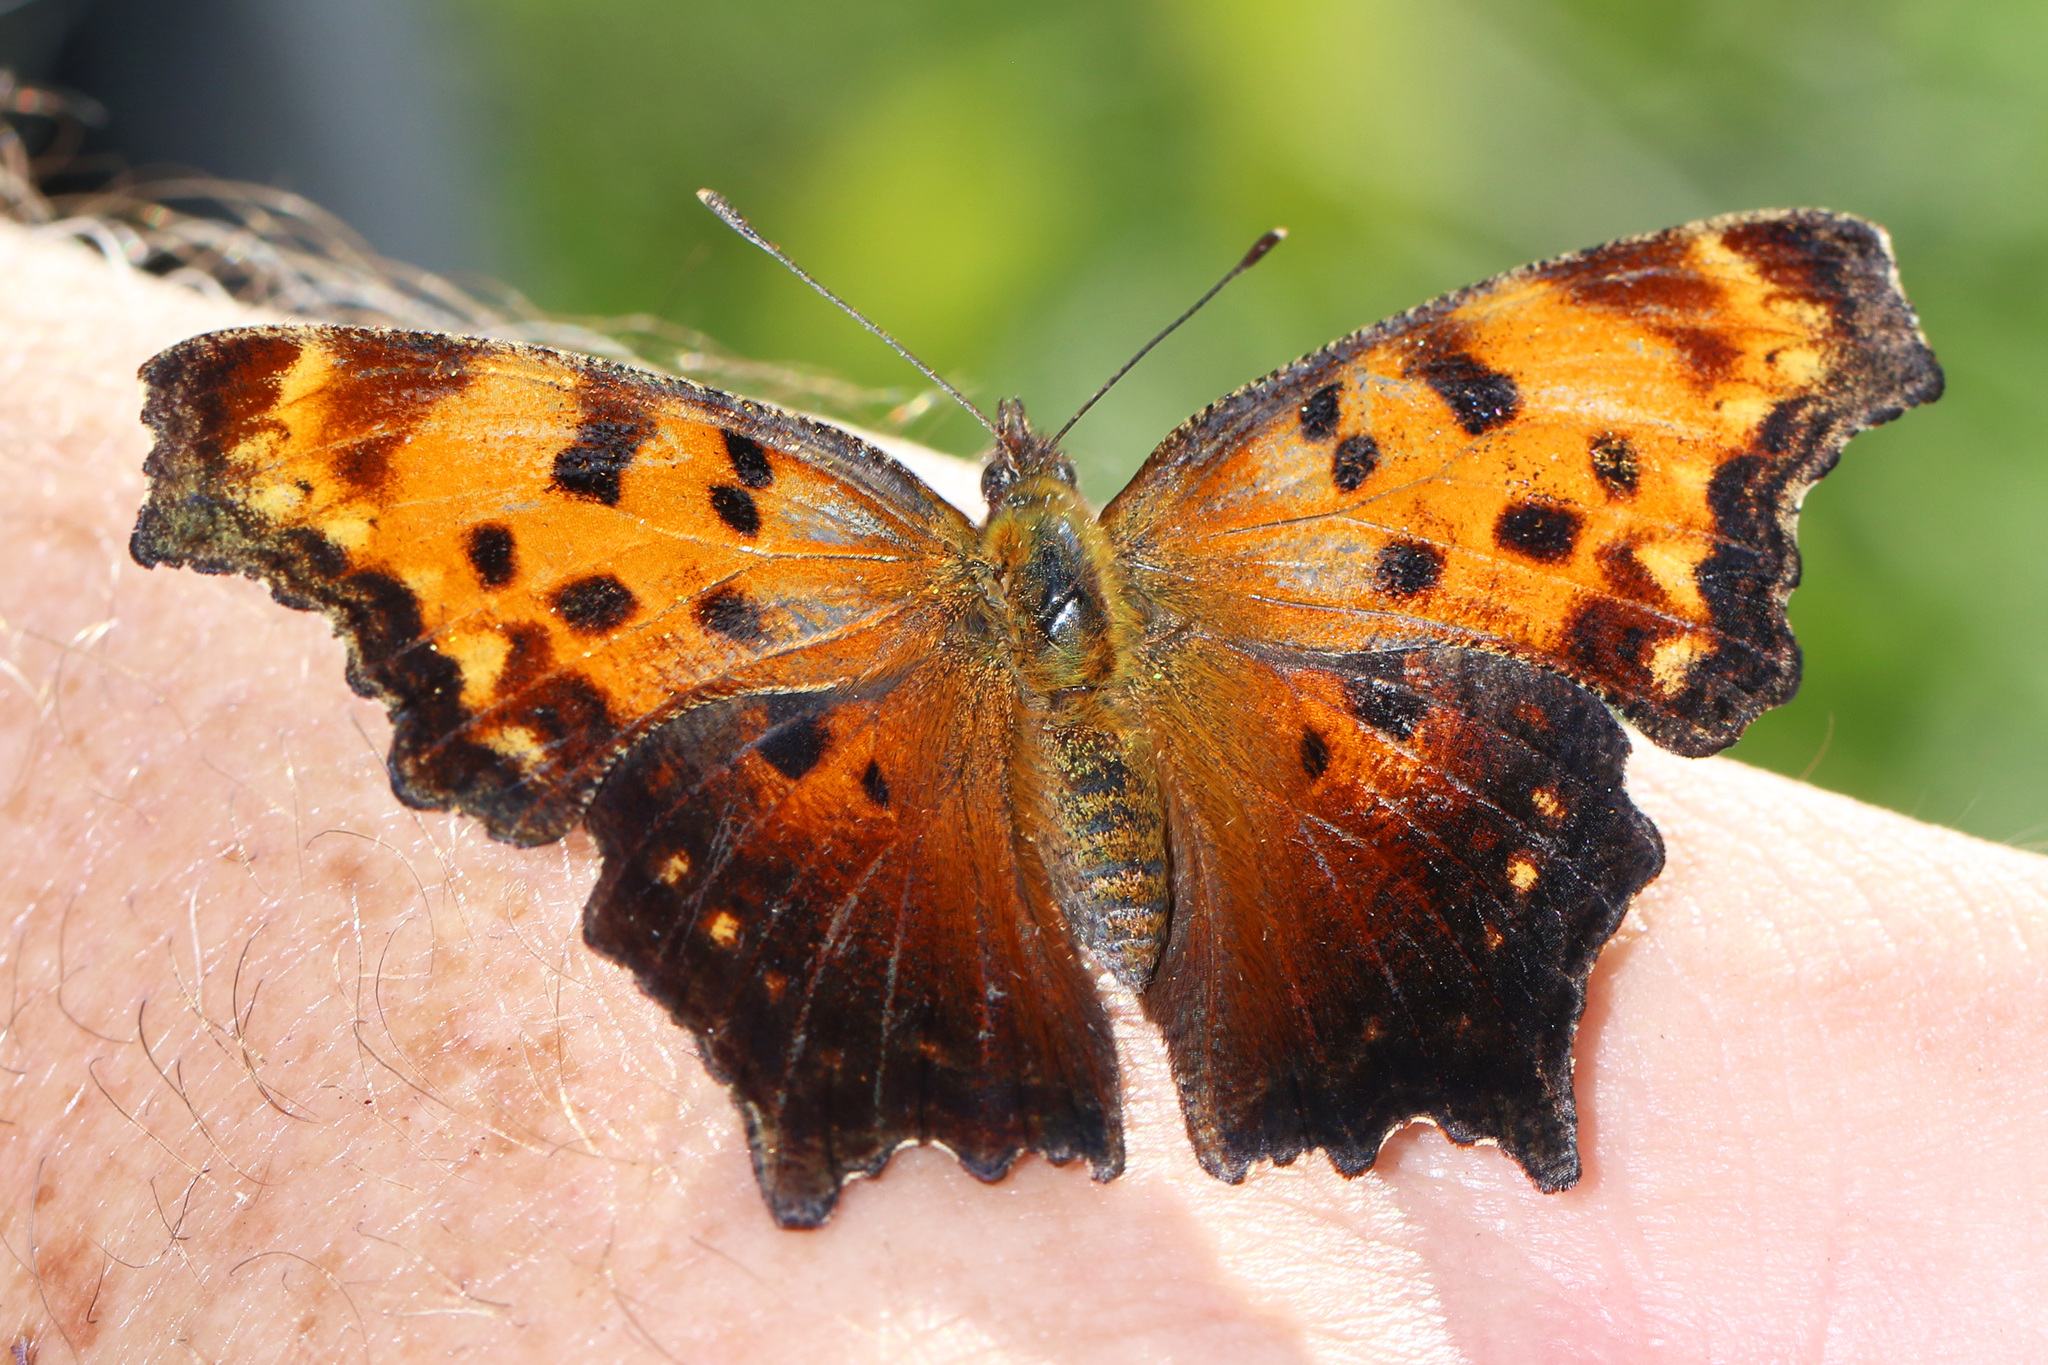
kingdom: Animalia
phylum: Arthropoda
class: Insecta
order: Lepidoptera
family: Nymphalidae
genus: Polygonia
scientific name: Polygonia progne
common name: Gray comma
